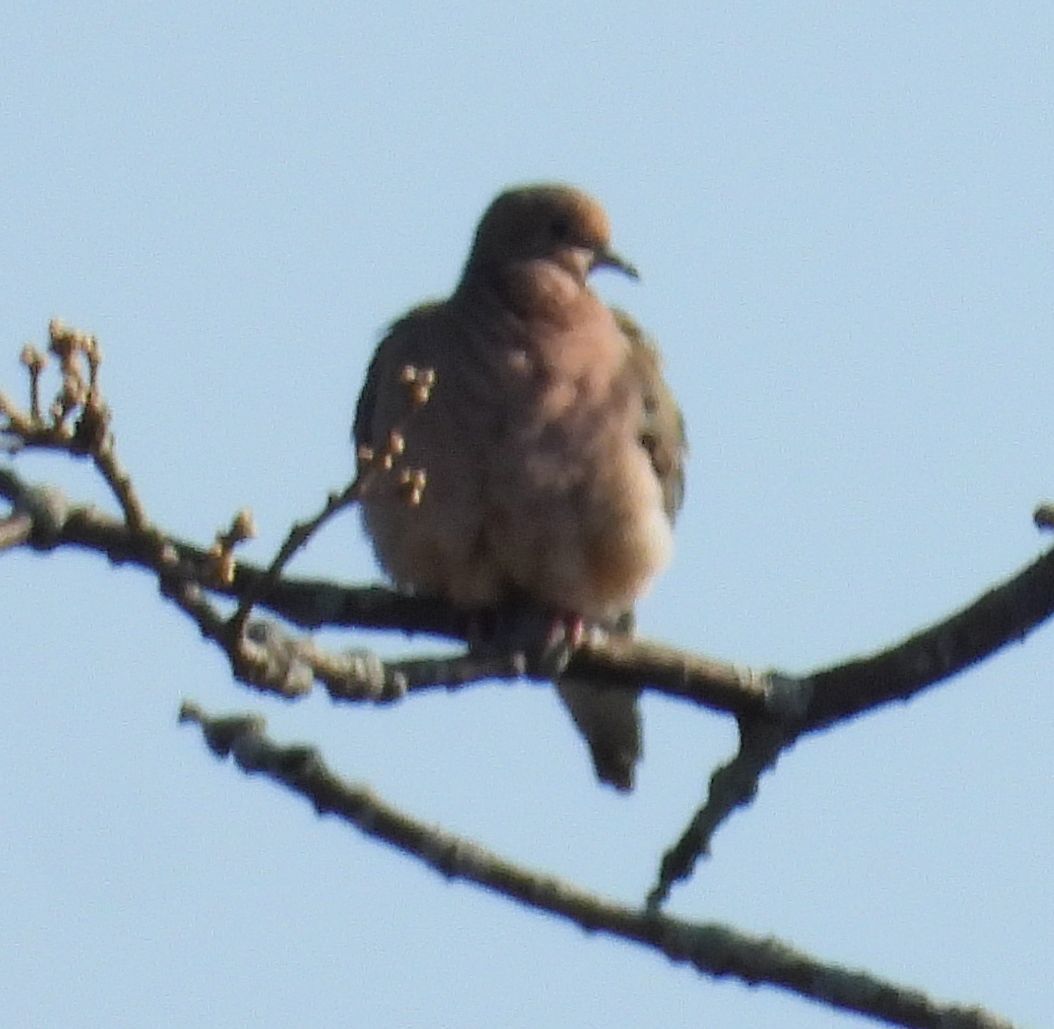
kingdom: Animalia
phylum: Chordata
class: Aves
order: Columbiformes
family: Columbidae
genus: Zenaida
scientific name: Zenaida macroura
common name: Mourning dove
